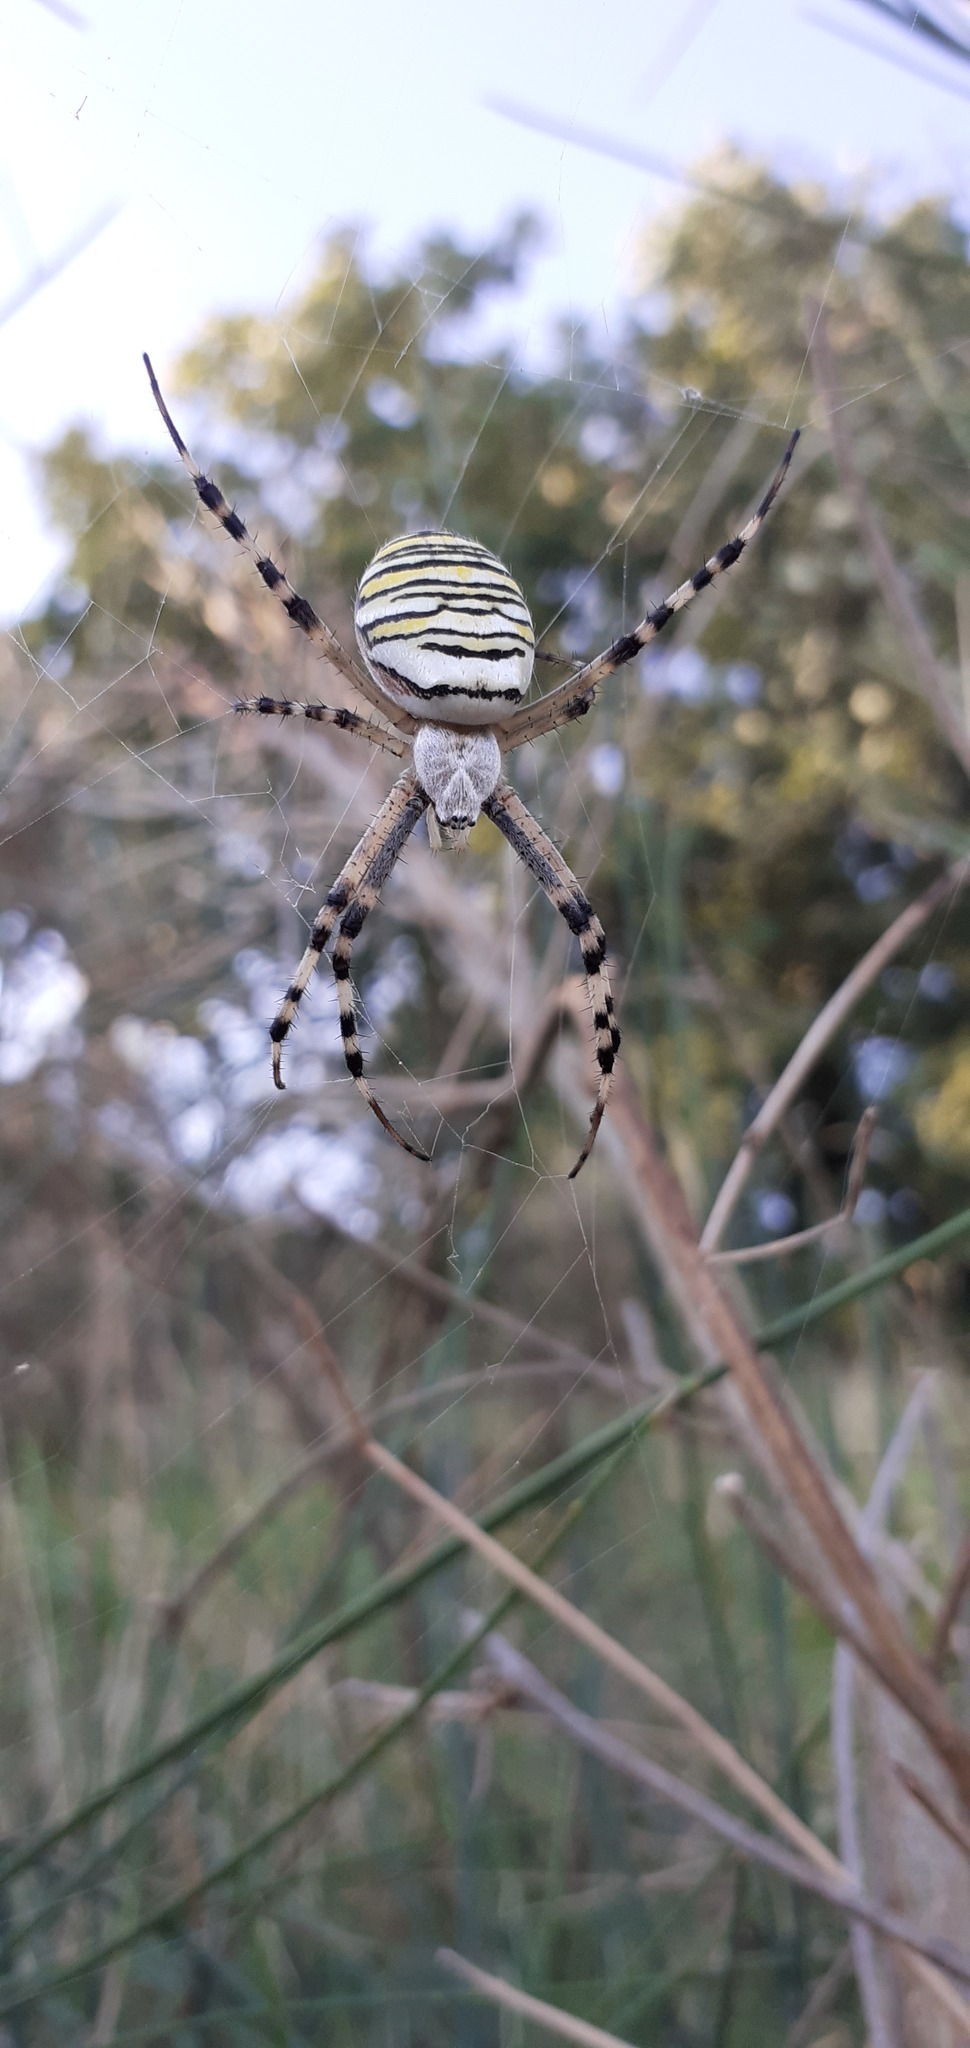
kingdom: Animalia
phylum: Arthropoda
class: Arachnida
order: Araneae
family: Araneidae
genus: Argiope
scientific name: Argiope bruennichi
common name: Wasp spider
